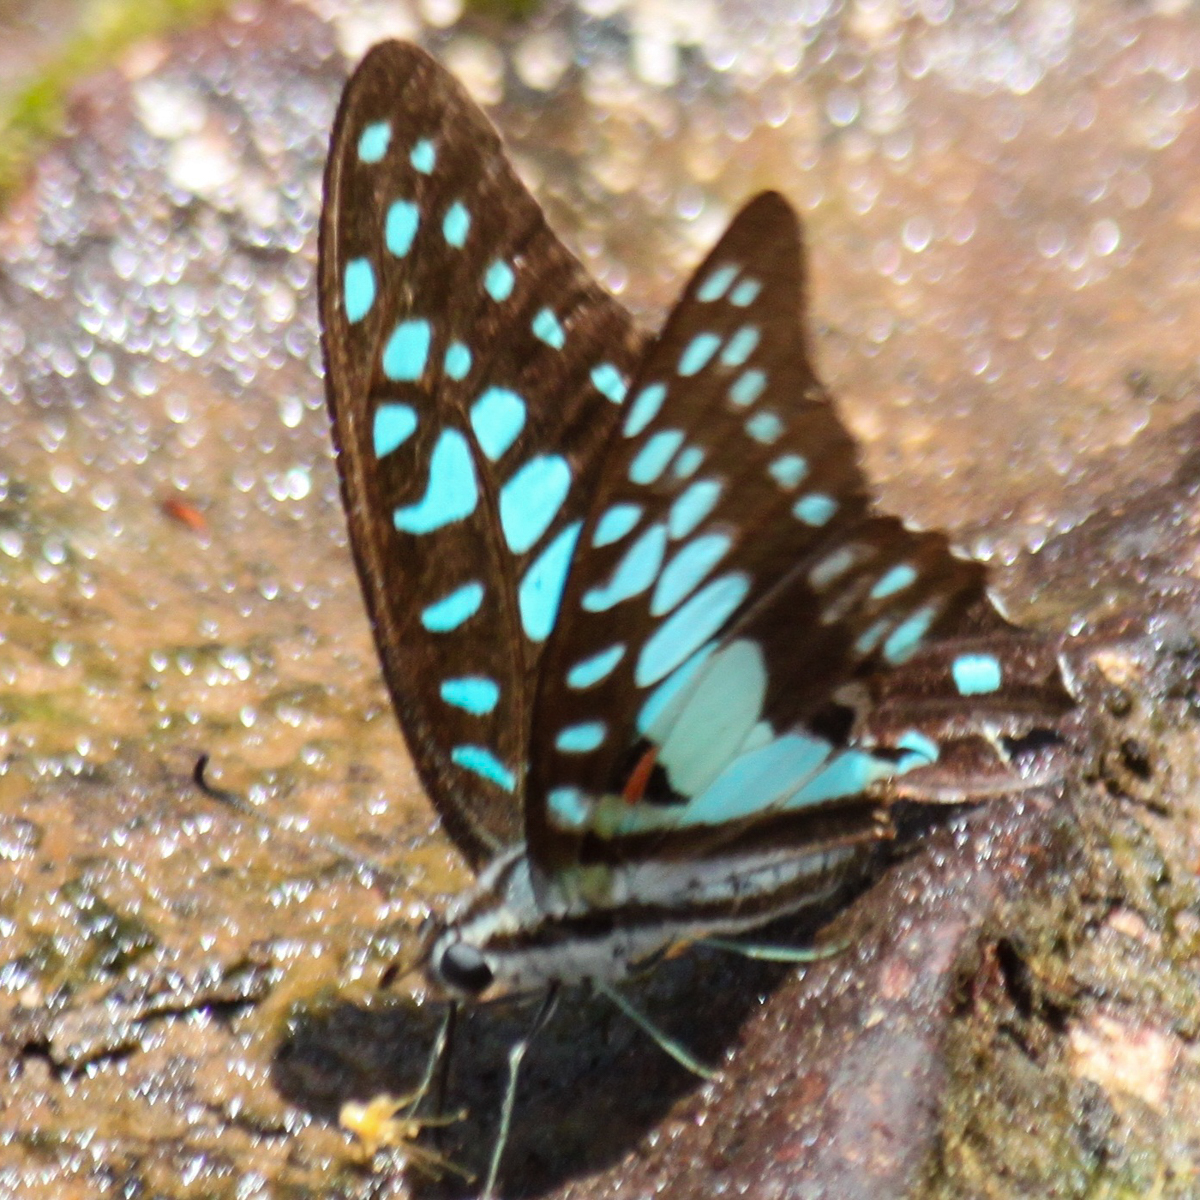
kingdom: Animalia
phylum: Arthropoda
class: Insecta
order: Lepidoptera
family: Papilionidae
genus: Graphium
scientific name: Graphium doson
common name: Common jay
